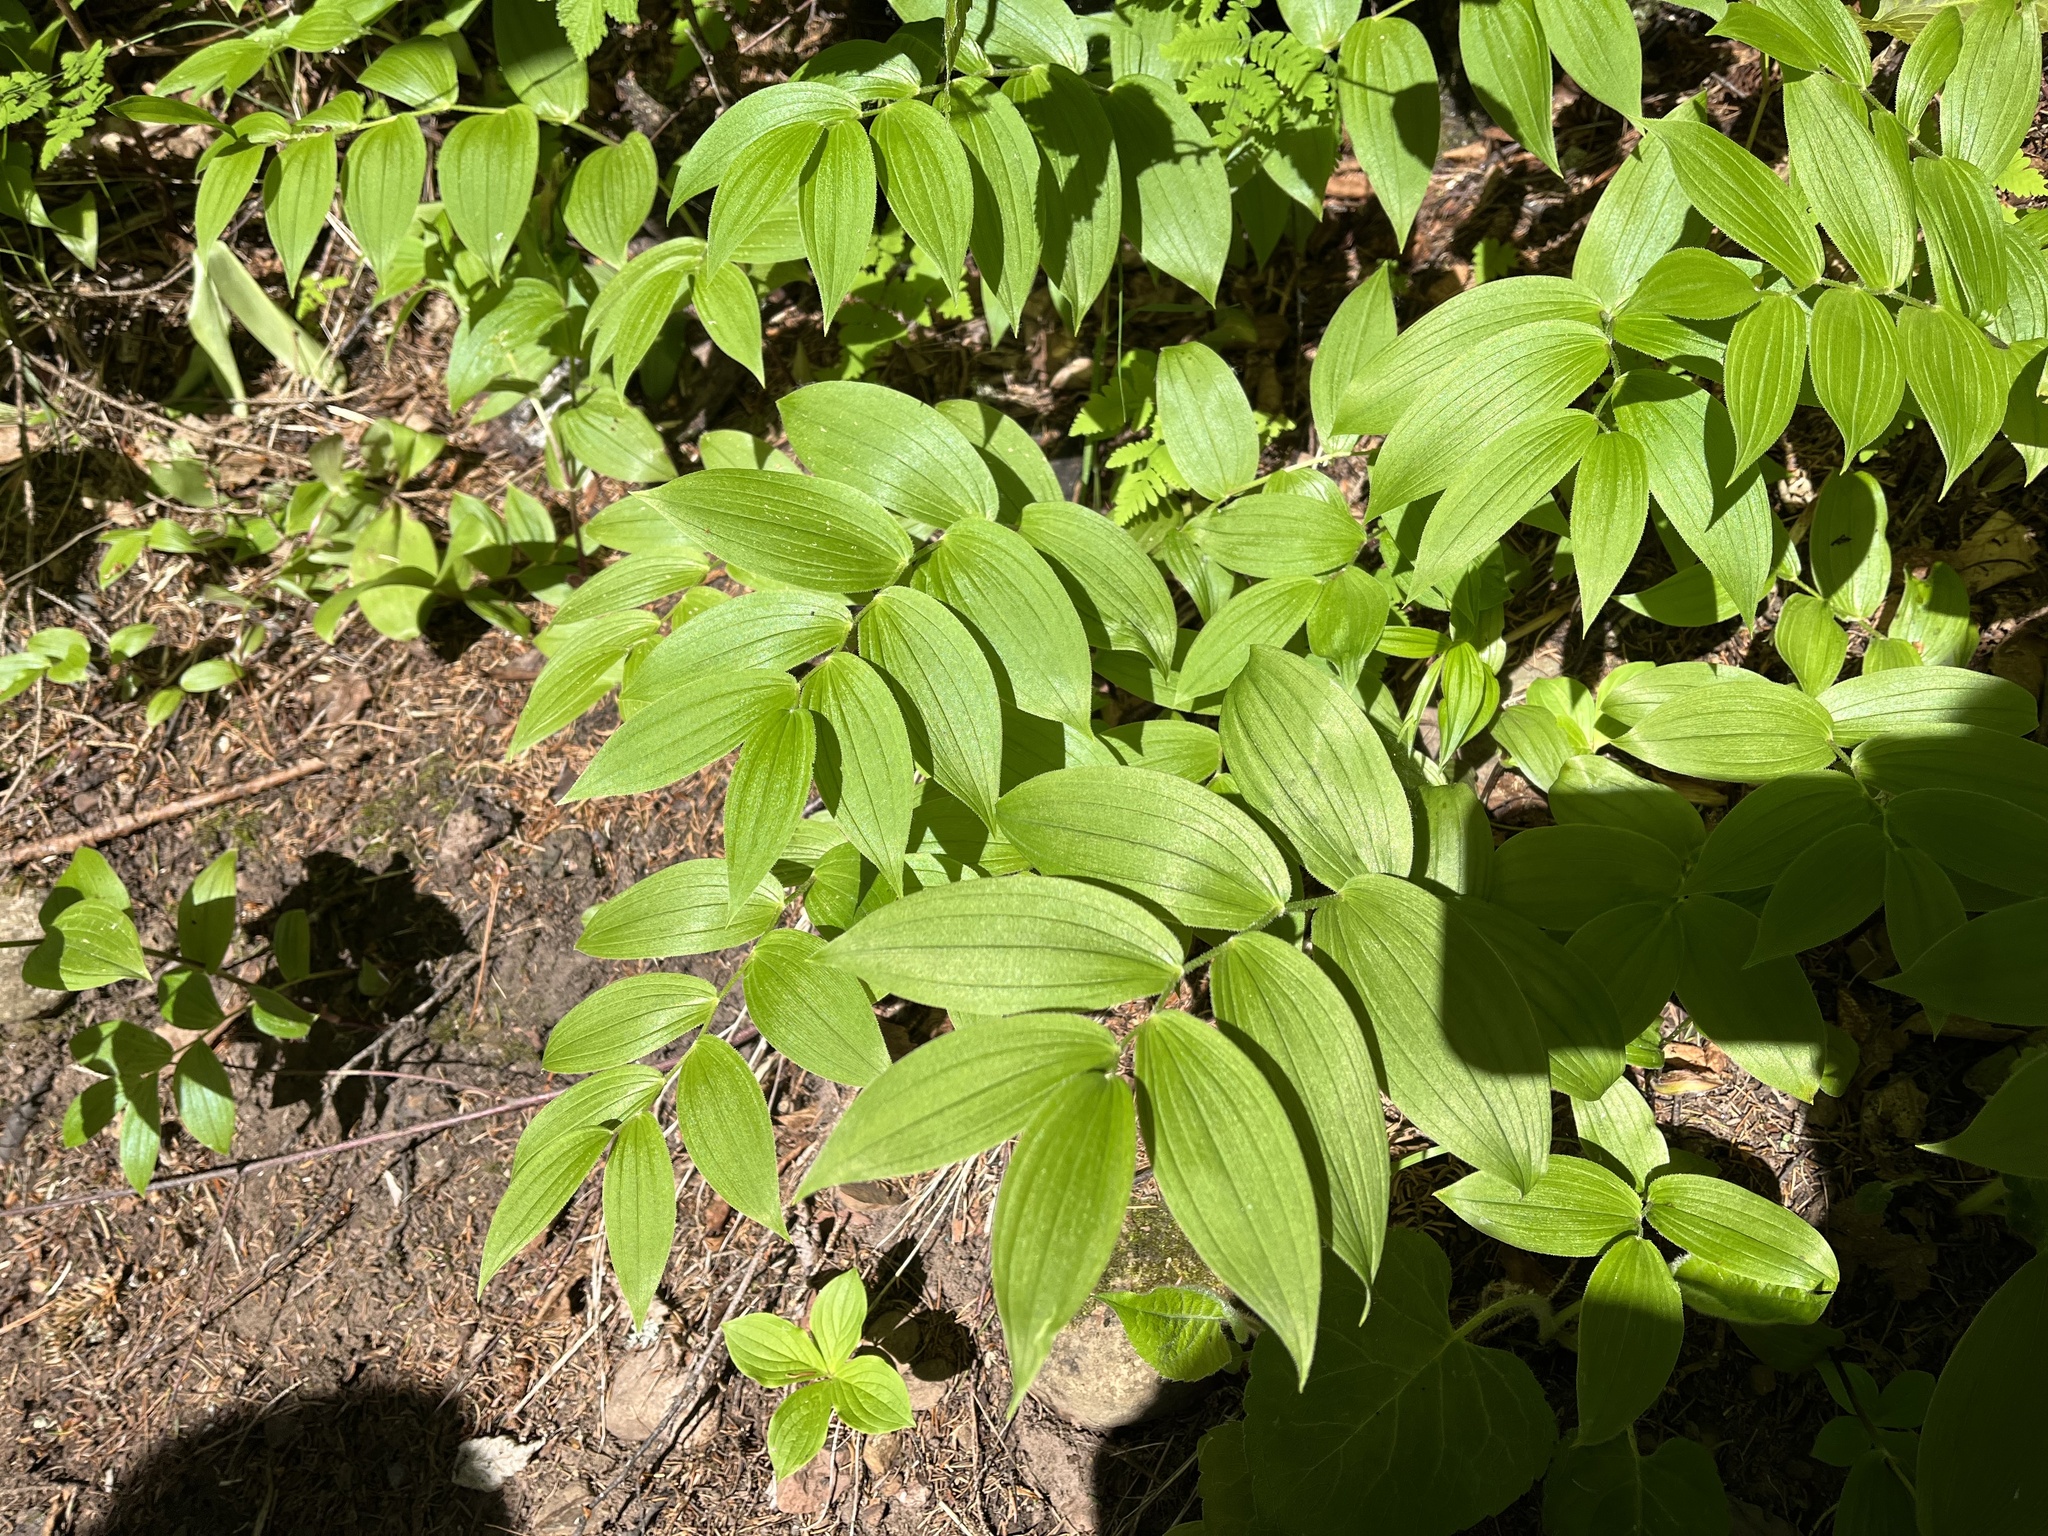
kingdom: Plantae
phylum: Tracheophyta
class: Liliopsida
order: Liliales
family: Liliaceae
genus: Streptopus
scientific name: Streptopus lanceolatus
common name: Rose mandarin
